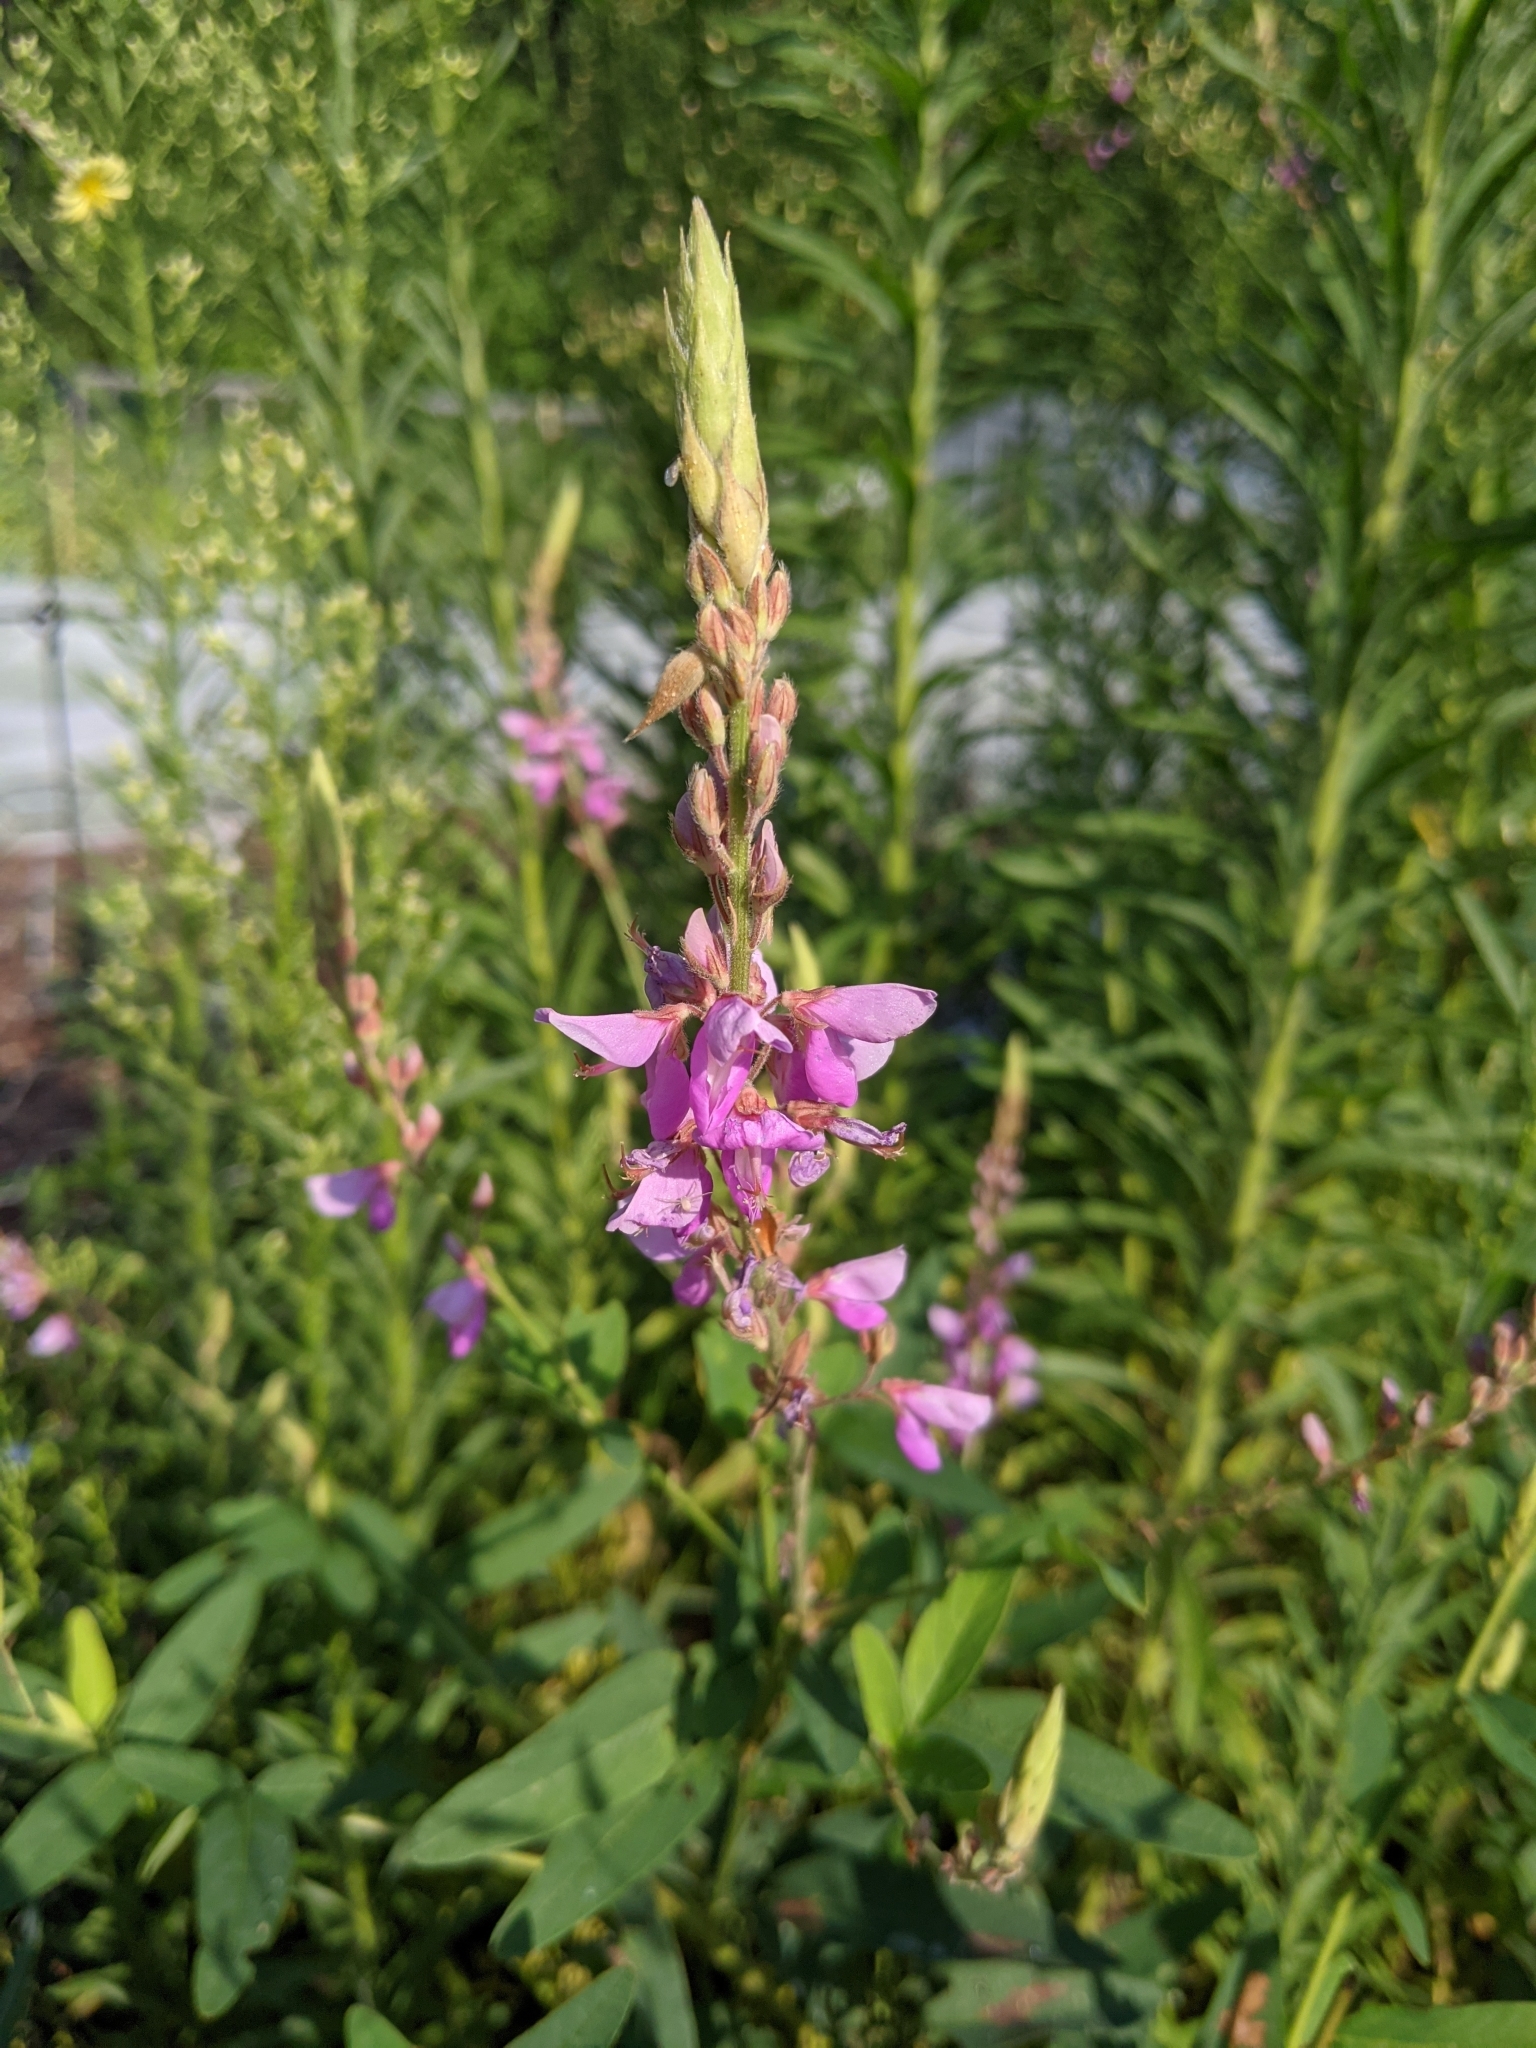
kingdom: Plantae
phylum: Tracheophyta
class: Magnoliopsida
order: Fabales
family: Fabaceae
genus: Desmodium
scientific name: Desmodium canadense
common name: Canada tick-trefoil
